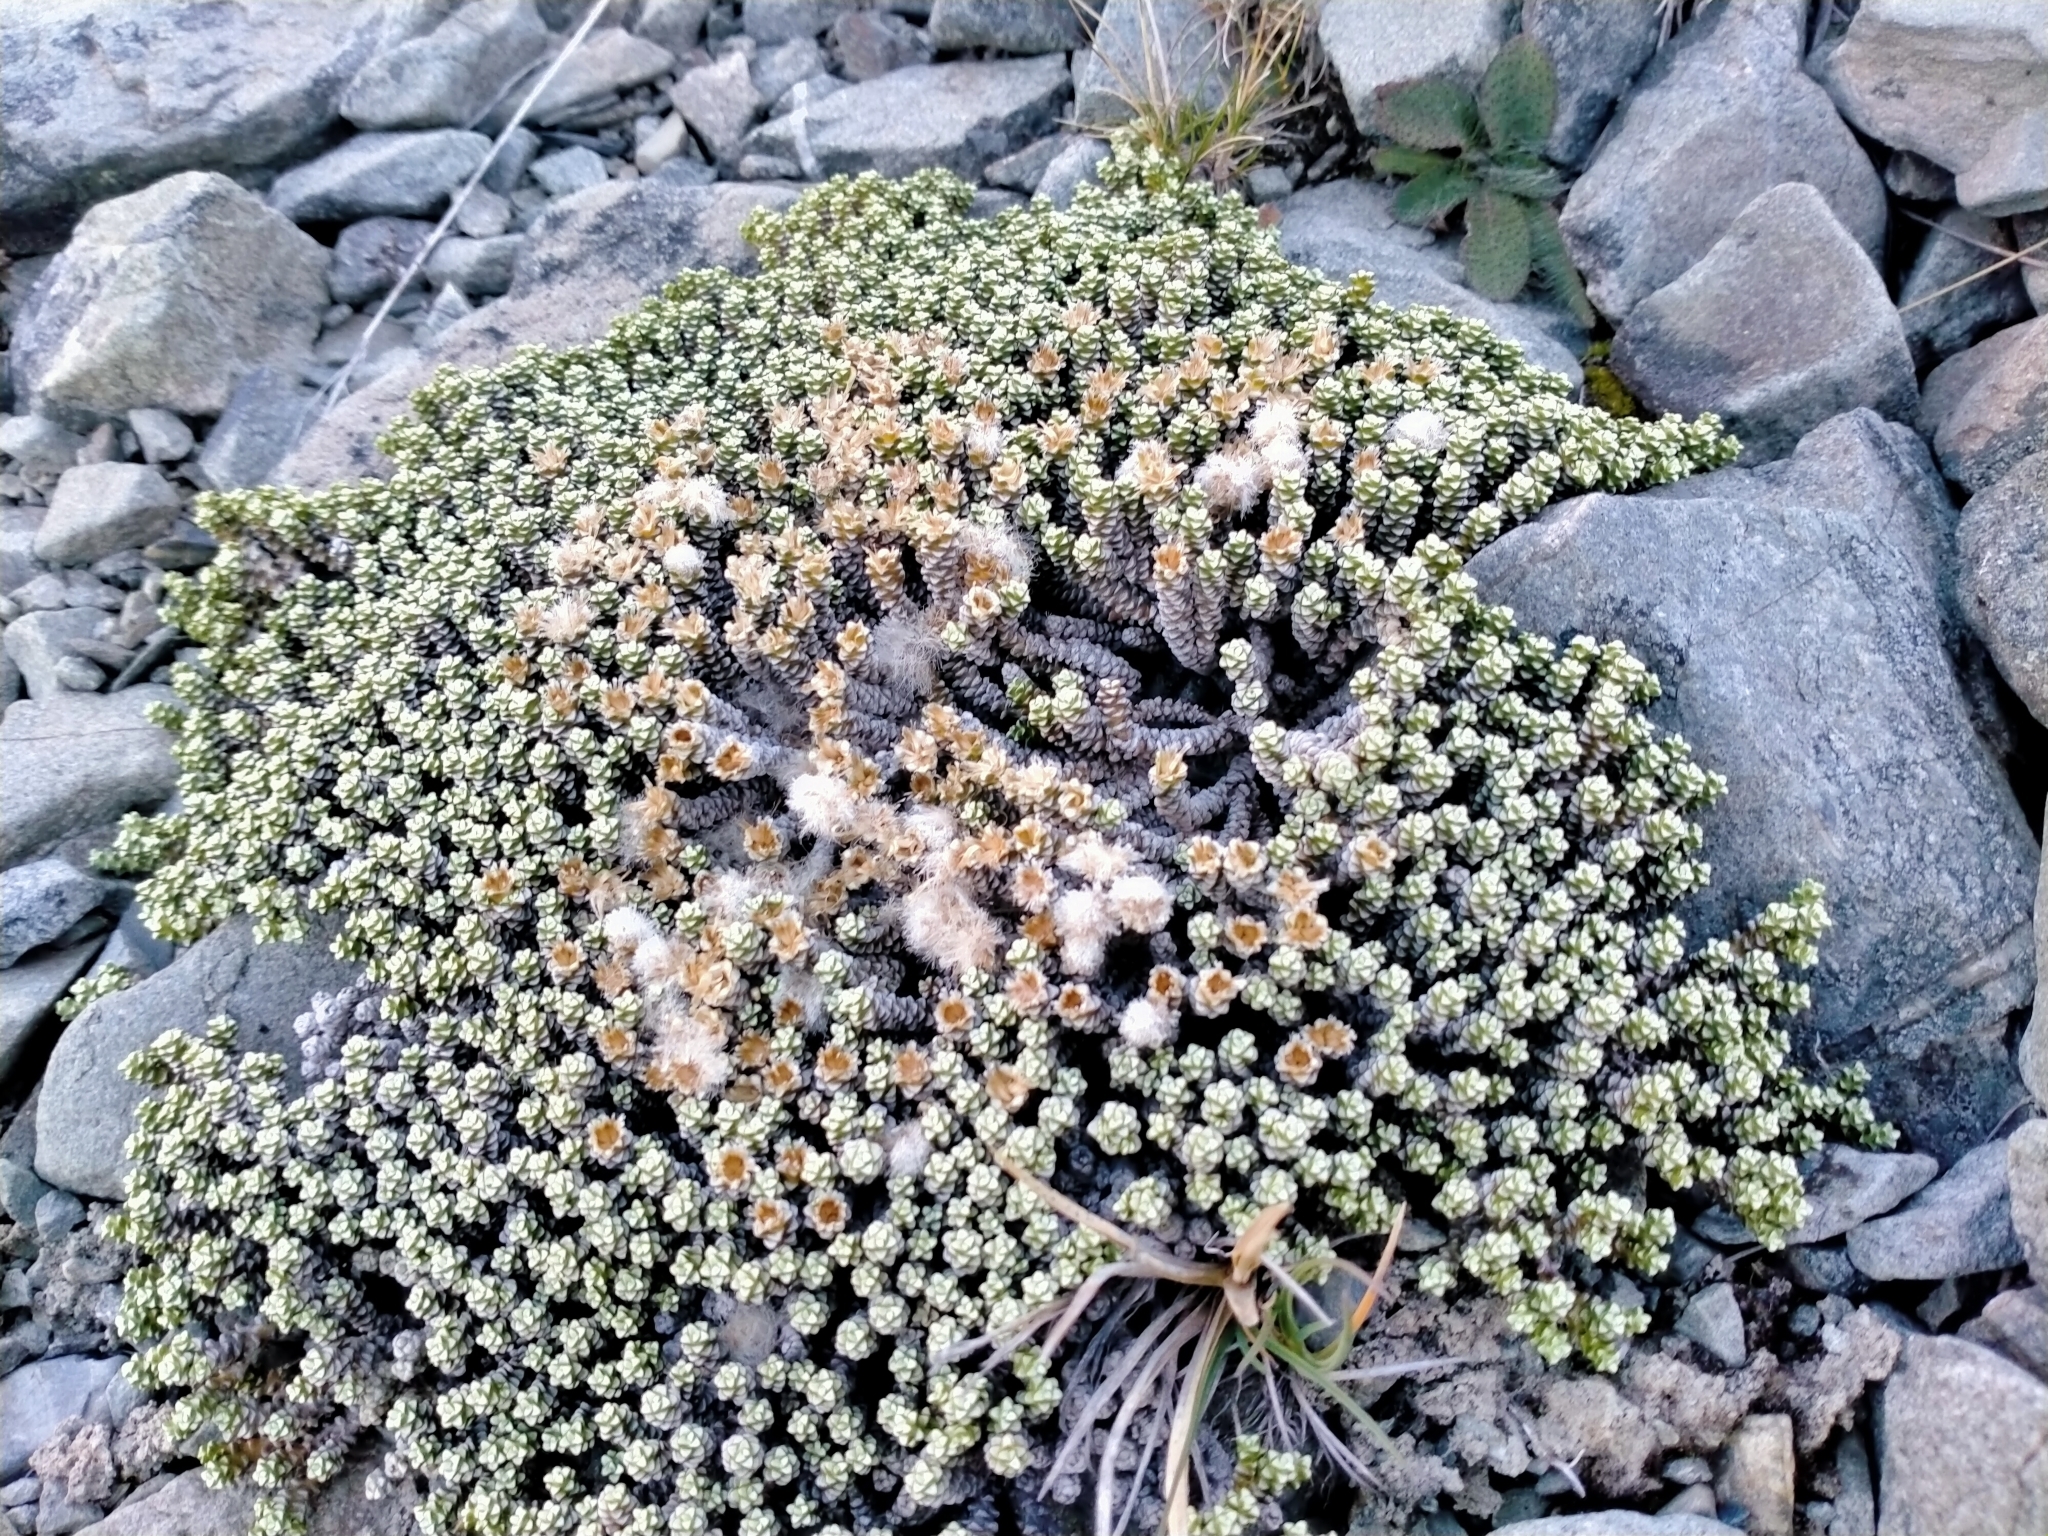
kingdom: Plantae
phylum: Tracheophyta
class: Magnoliopsida
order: Asterales
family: Asteraceae
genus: Raoulia
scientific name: Raoulia petriensis
